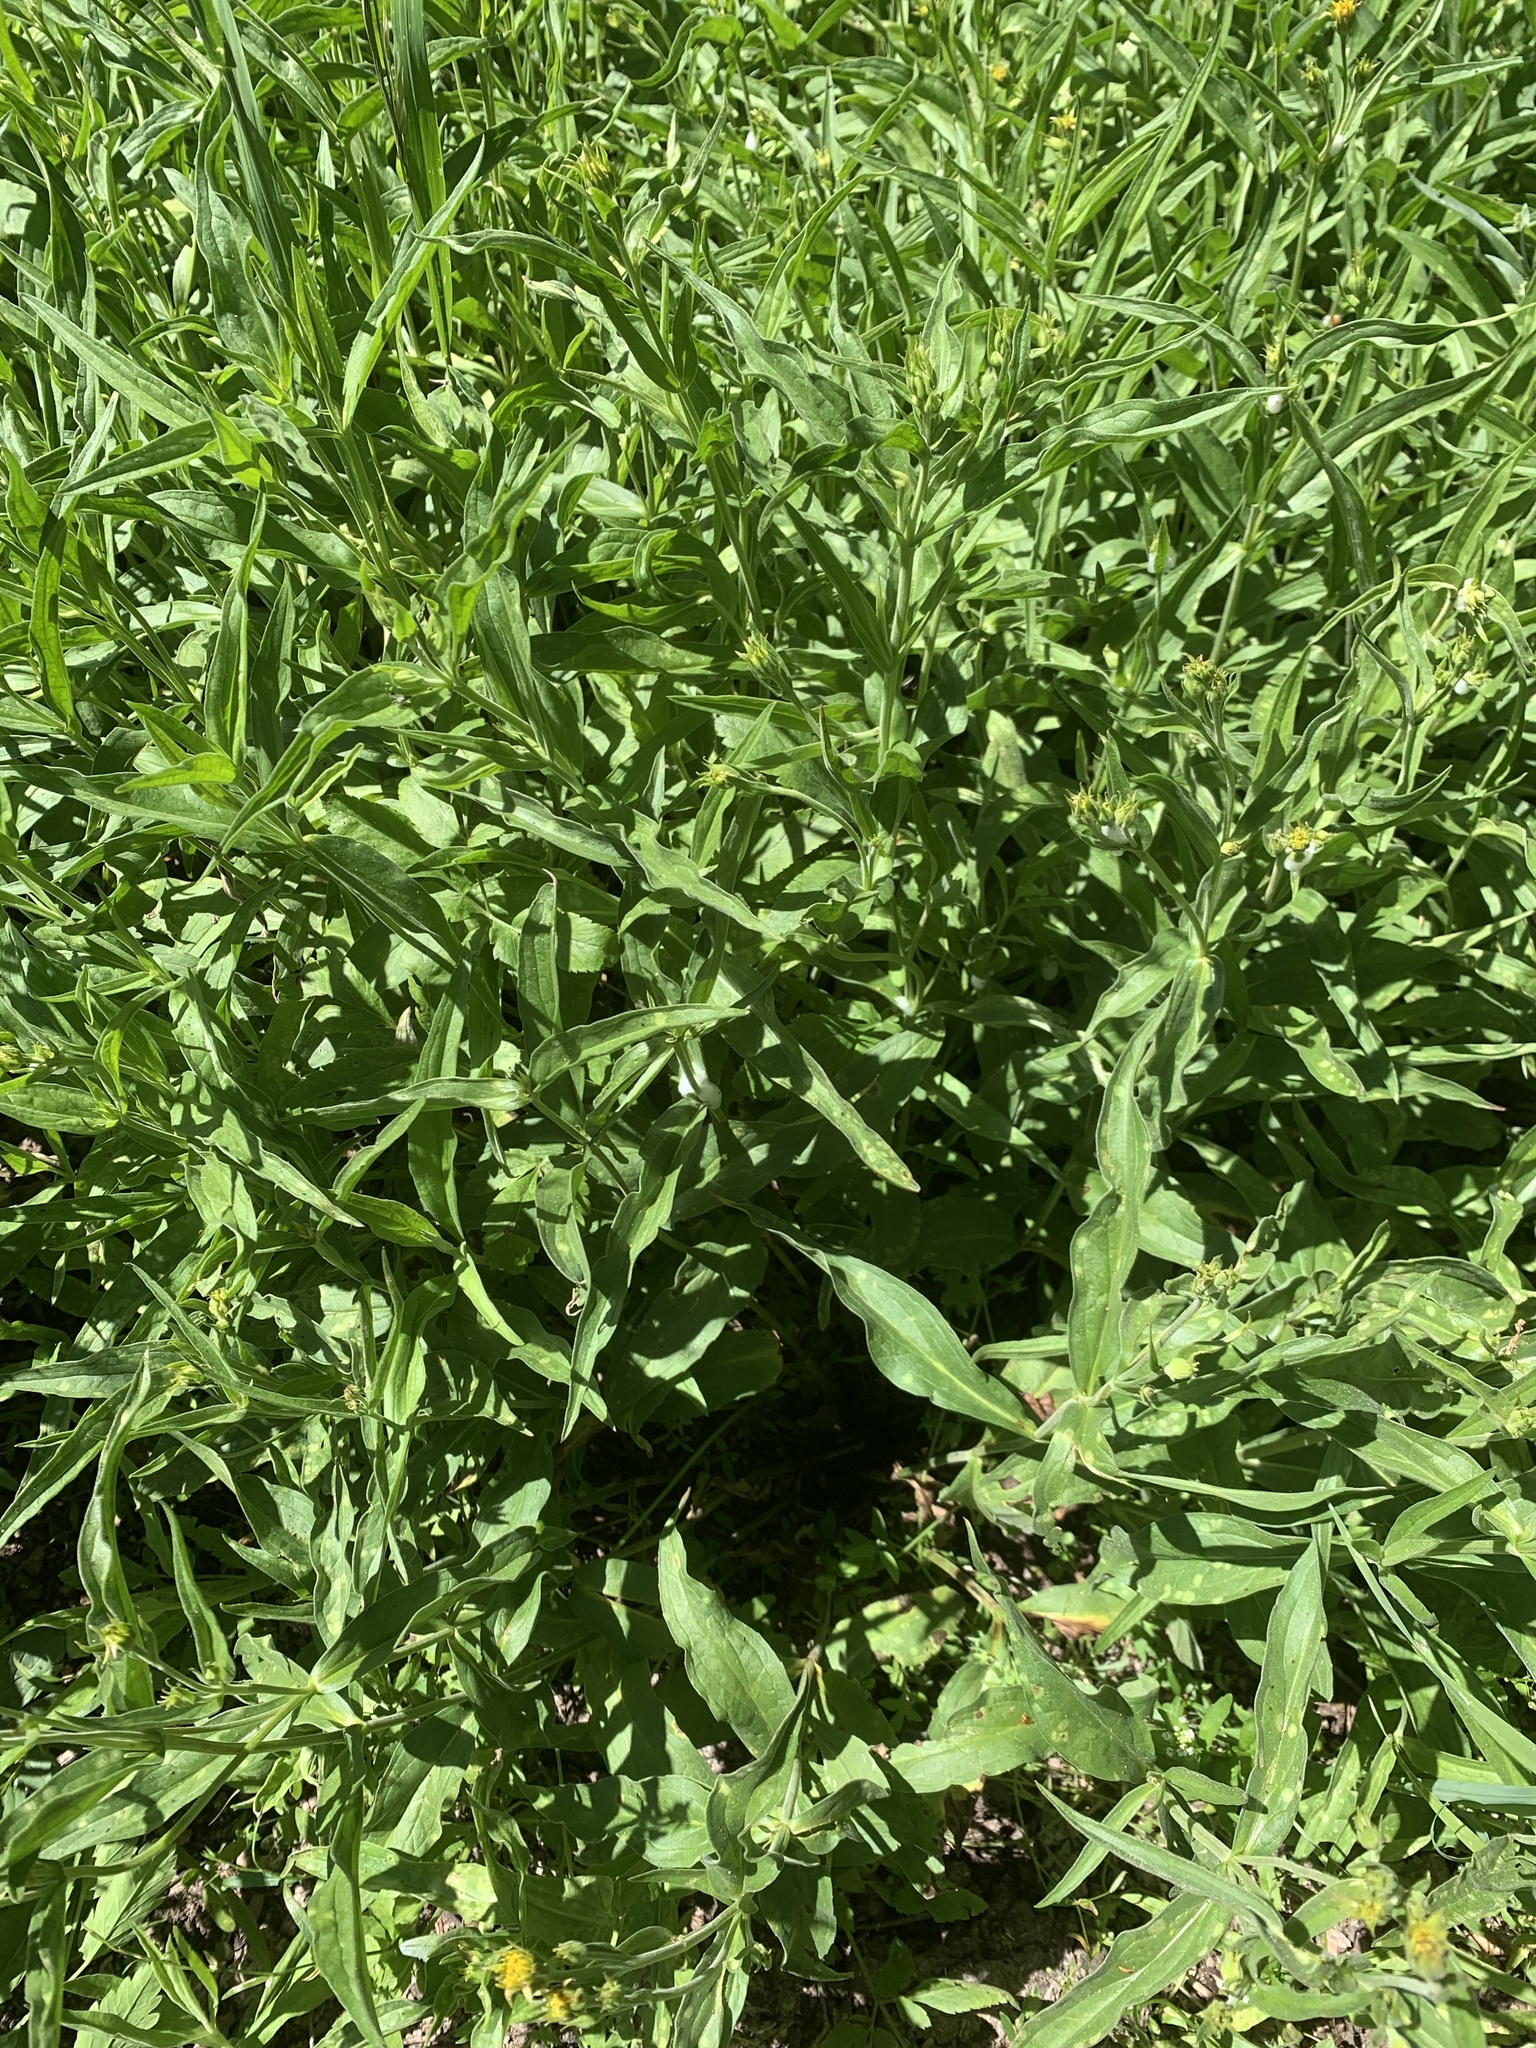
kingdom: Plantae
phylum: Tracheophyta
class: Magnoliopsida
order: Asterales
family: Asteraceae
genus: Arnica
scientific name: Arnica longifolia
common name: Spear-leaf arnica
